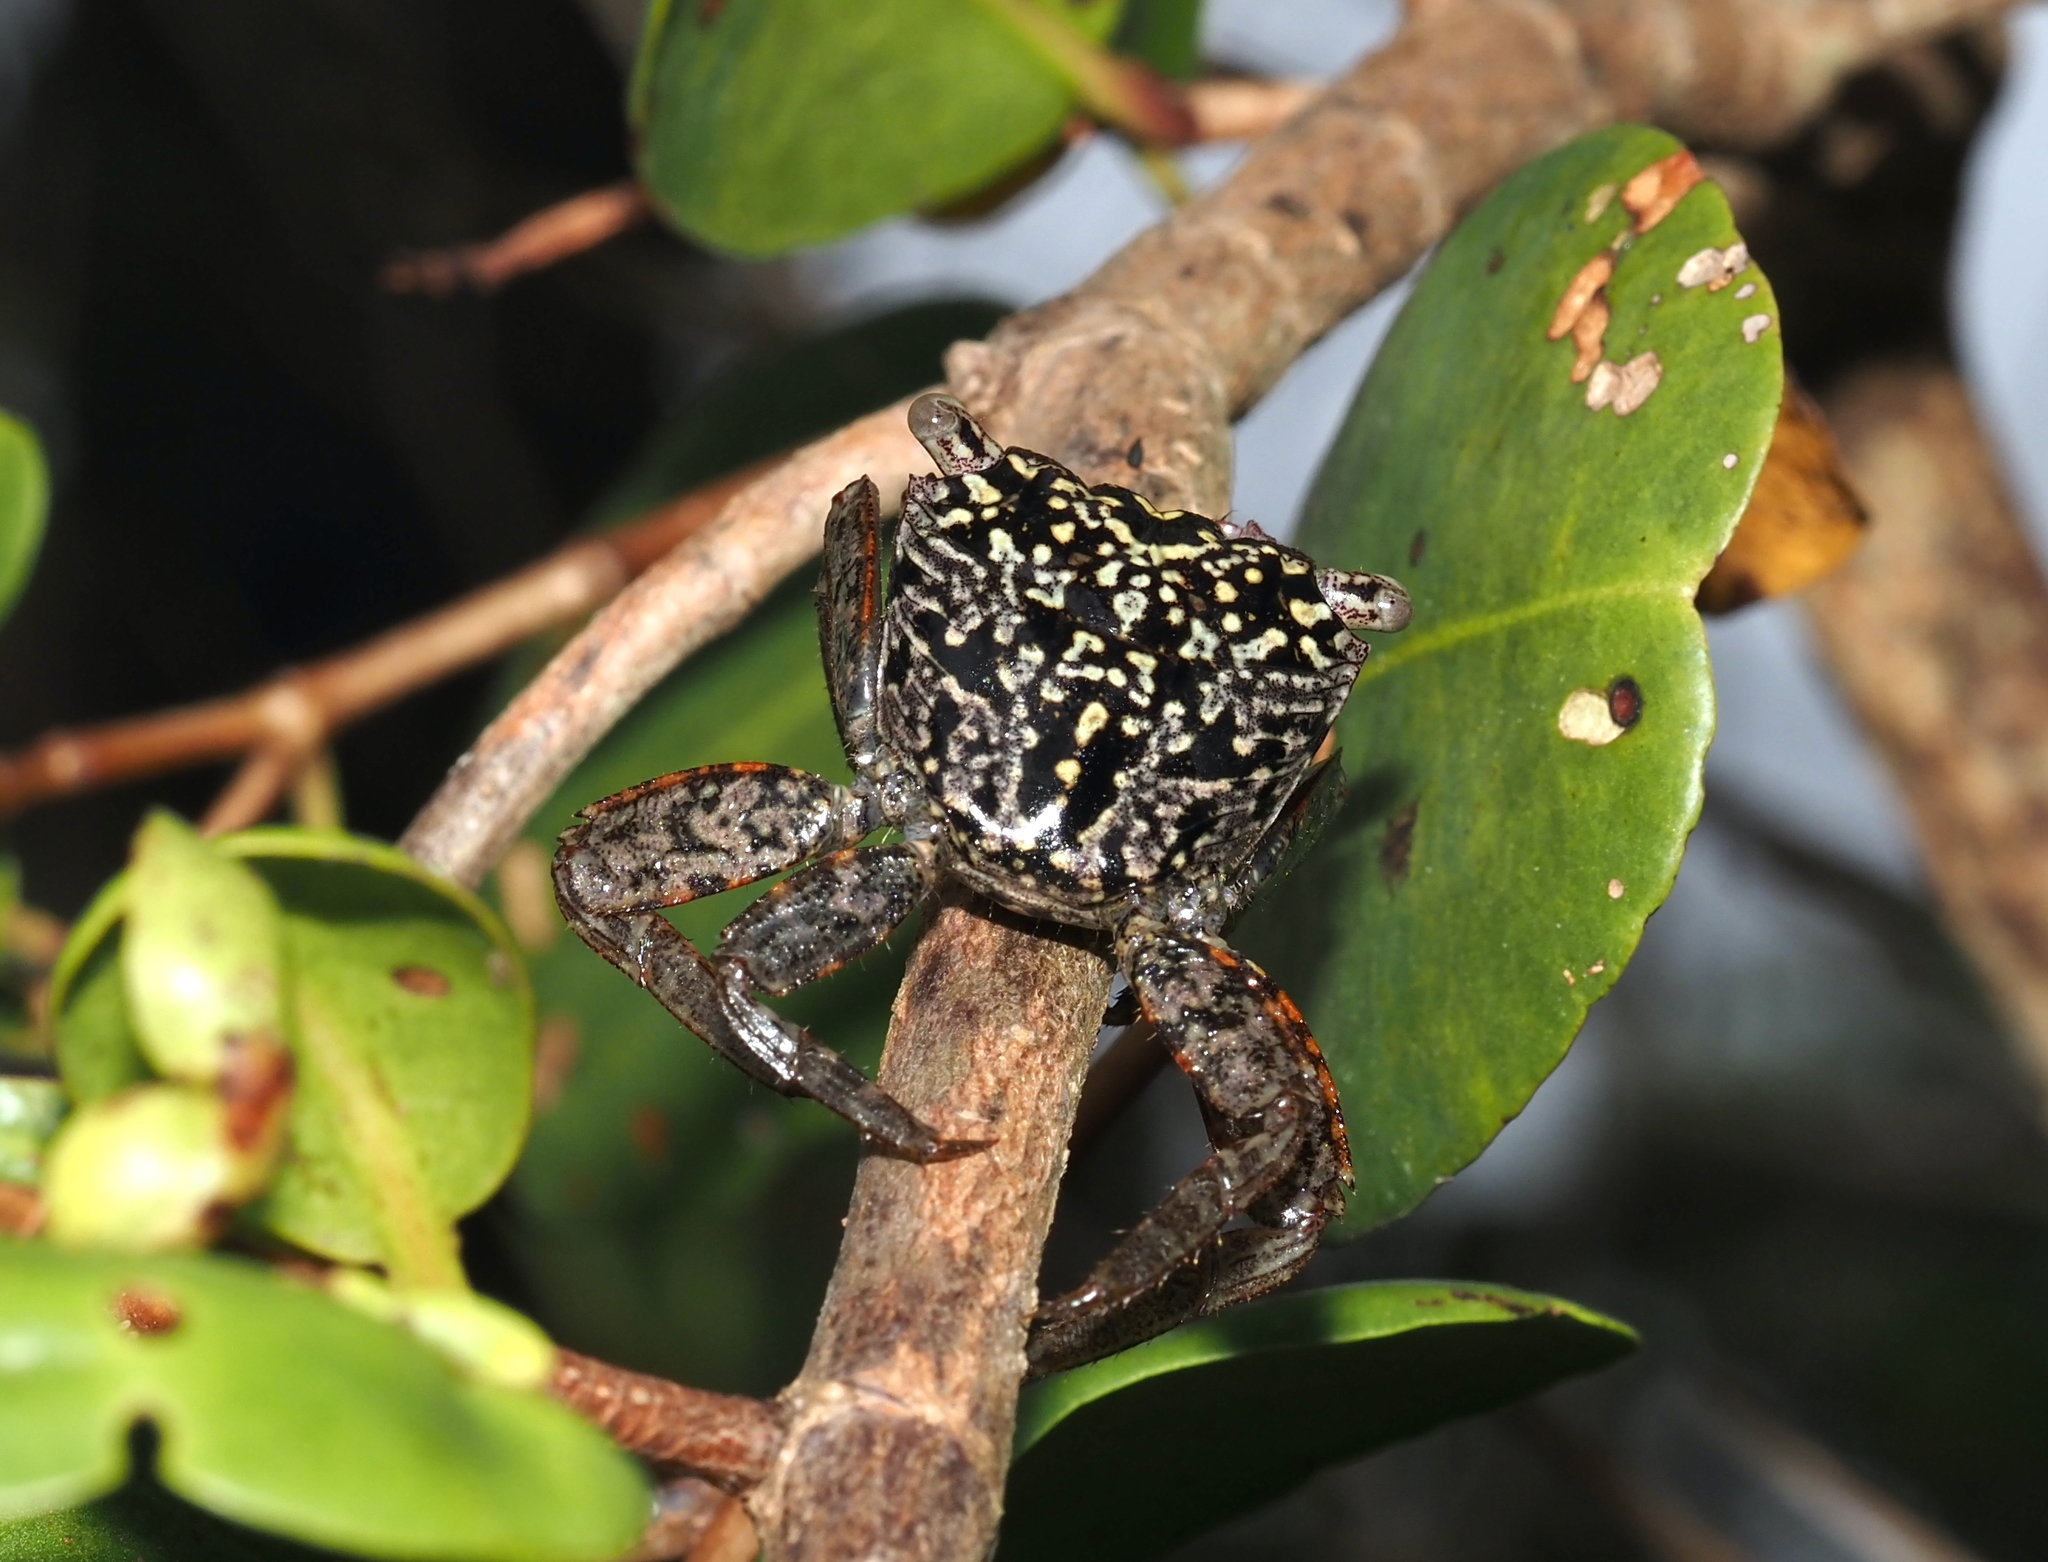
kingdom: Animalia
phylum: Arthropoda
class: Malacostraca
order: Decapoda
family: Sesarmidae
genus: Aratus
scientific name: Aratus pisonii
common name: Mangrove crab
